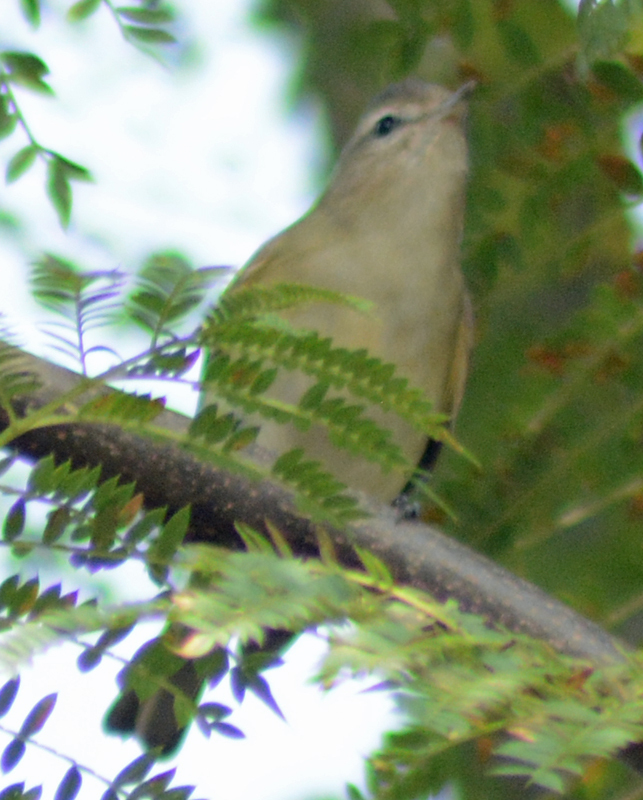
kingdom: Animalia
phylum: Chordata
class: Aves
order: Passeriformes
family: Vireonidae
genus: Vireo
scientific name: Vireo gilvus
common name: Warbling vireo
